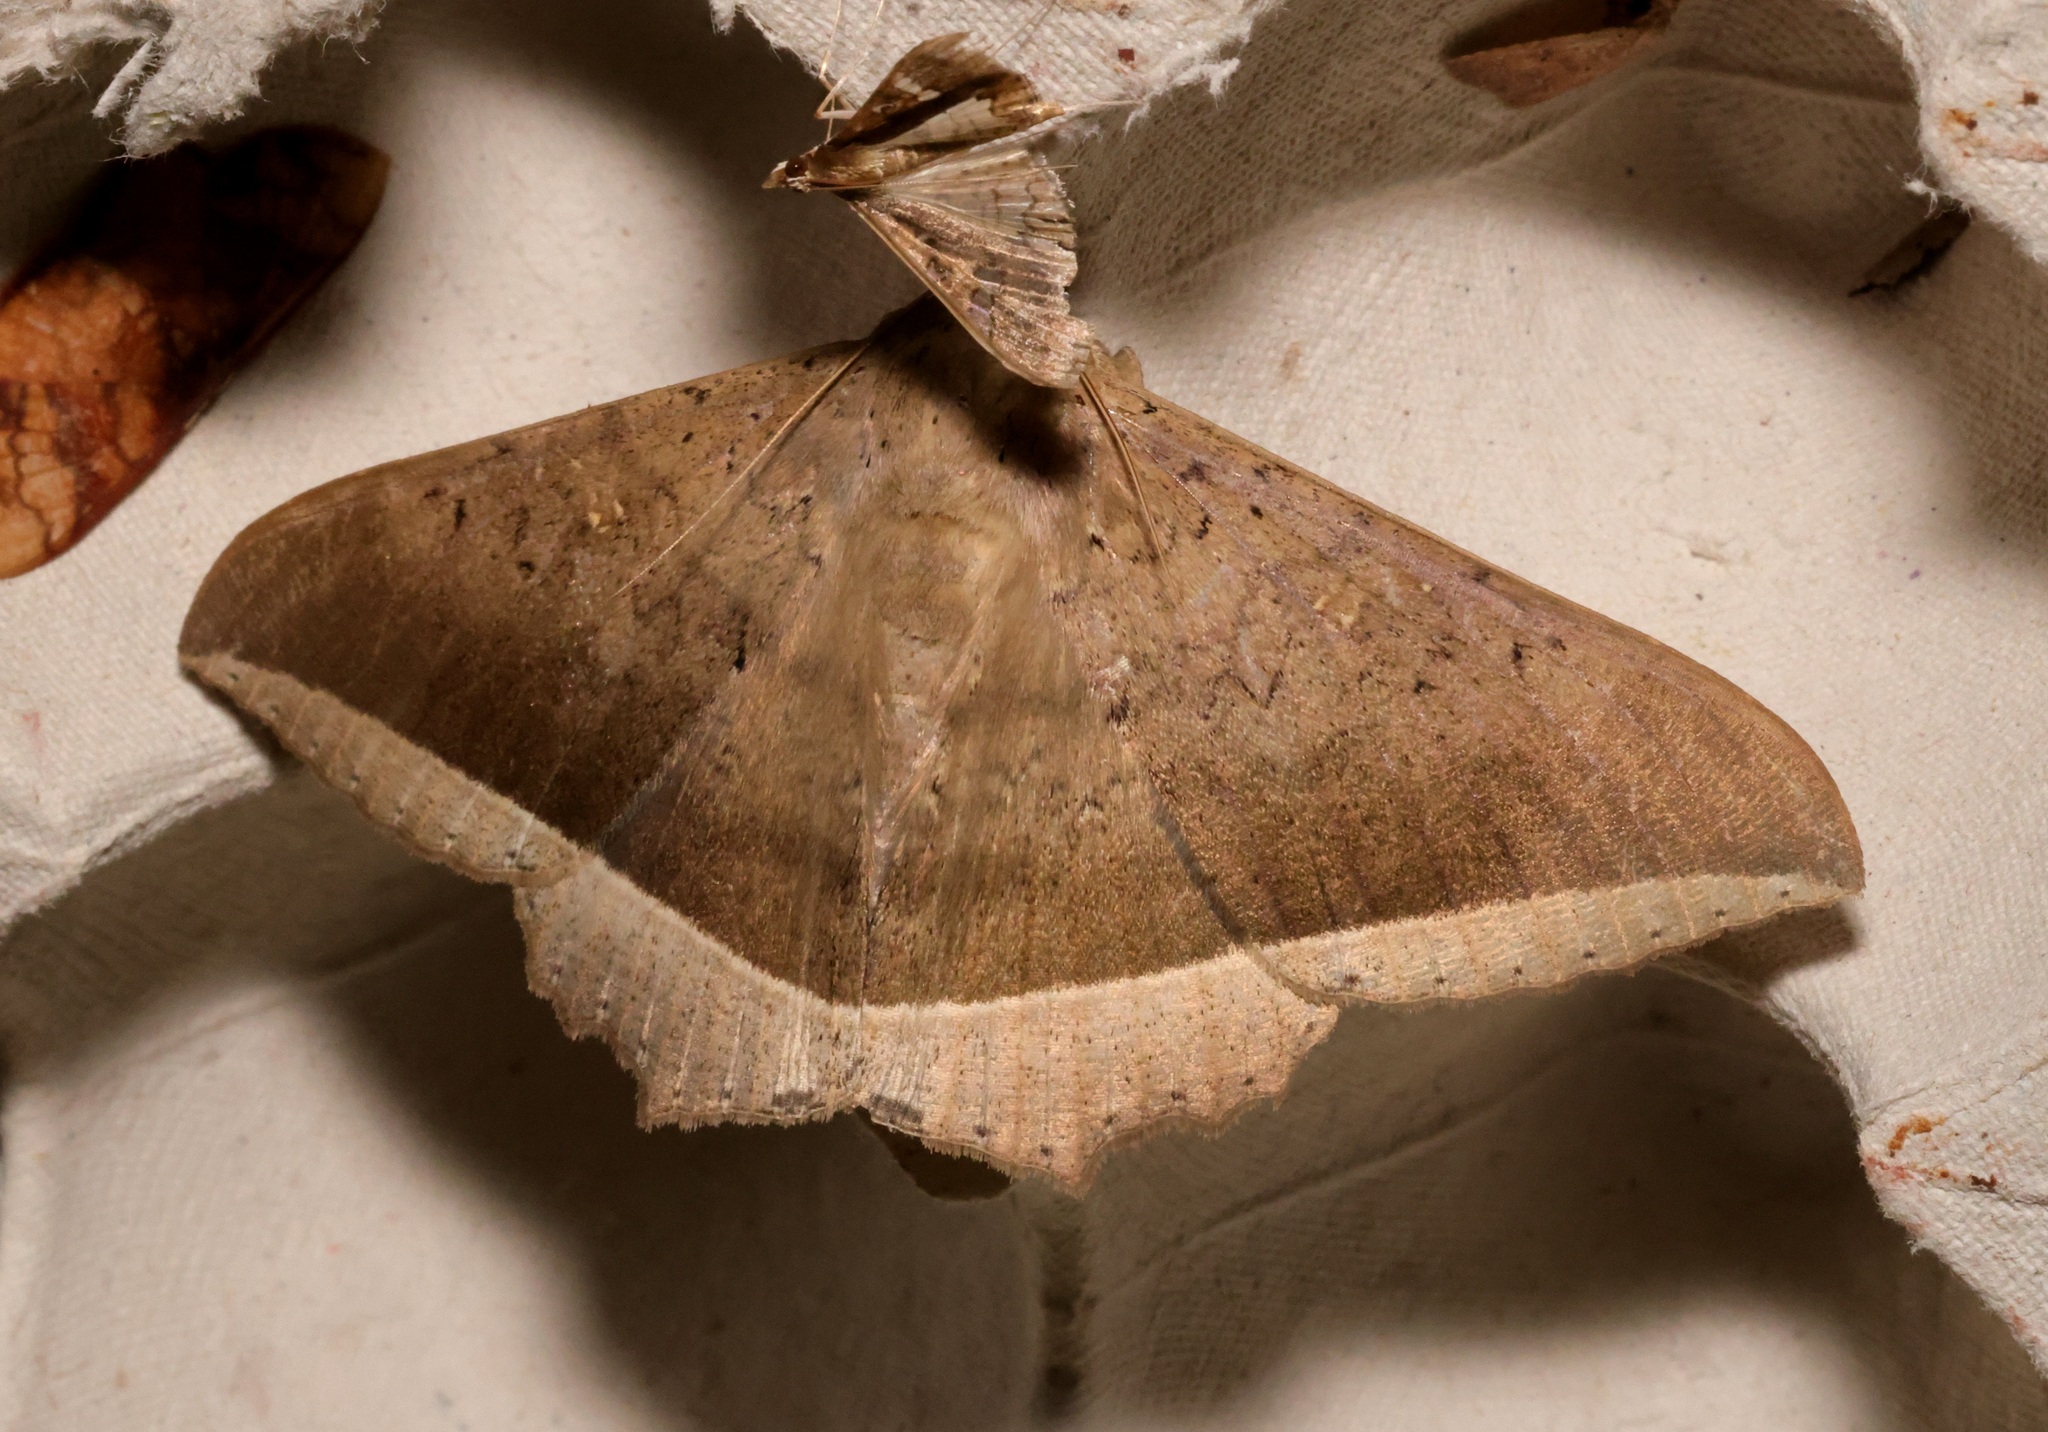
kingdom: Animalia
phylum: Arthropoda
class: Insecta
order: Lepidoptera
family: Erebidae
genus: Hulodes
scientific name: Hulodes caranea
